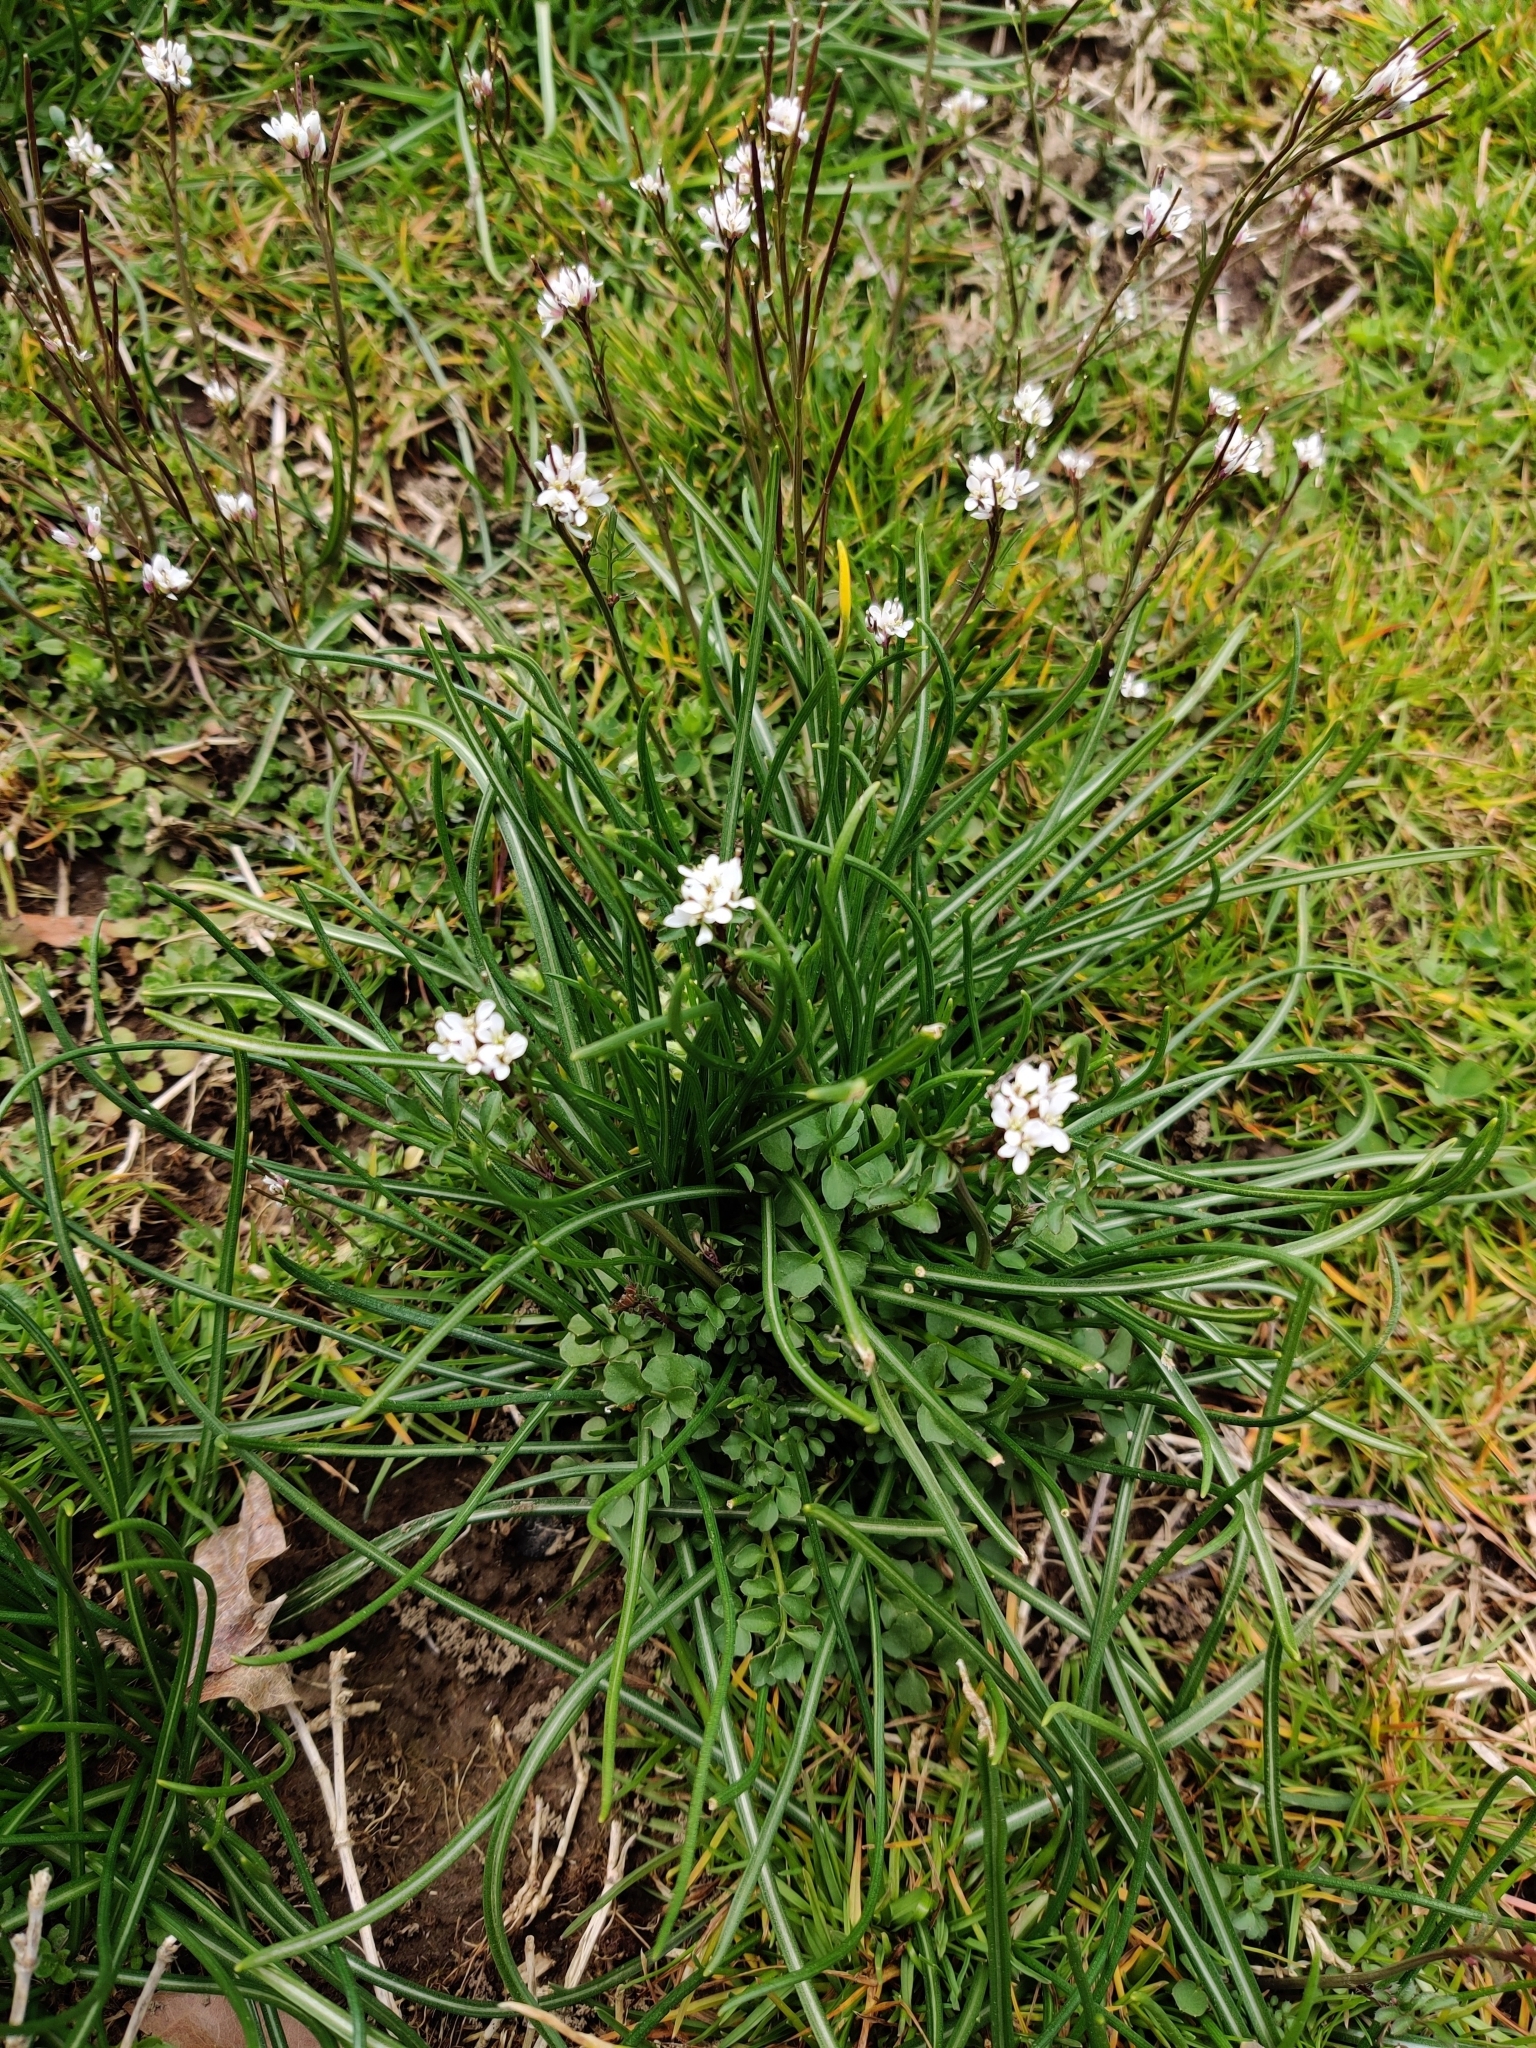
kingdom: Plantae
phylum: Tracheophyta
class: Magnoliopsida
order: Brassicales
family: Brassicaceae
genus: Cardamine
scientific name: Cardamine hirsuta
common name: Hairy bittercress
